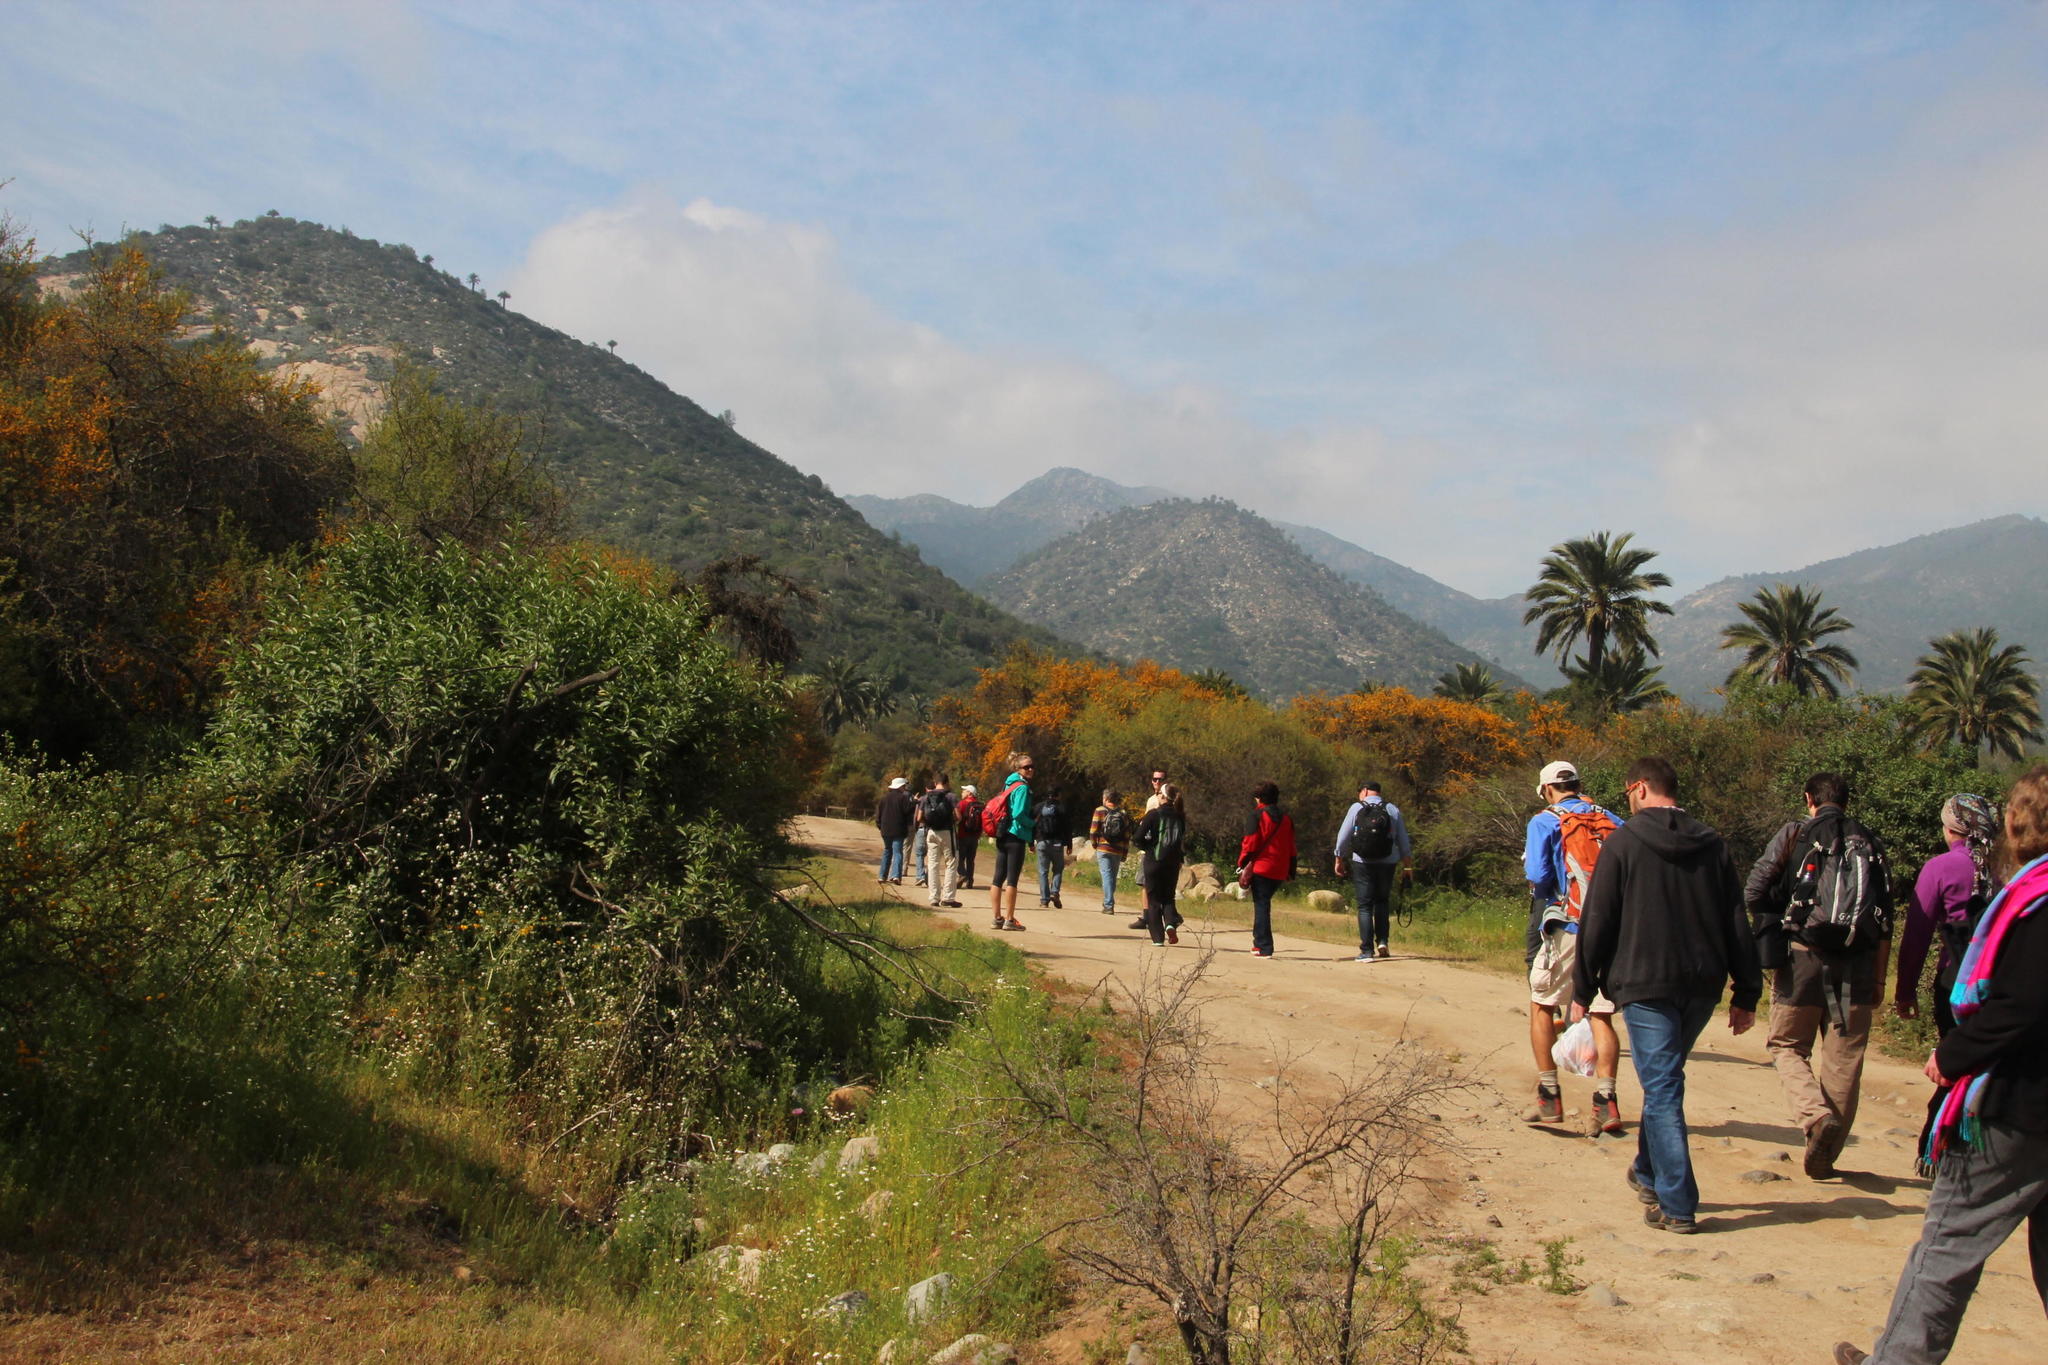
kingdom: Plantae
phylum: Tracheophyta
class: Magnoliopsida
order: Fabales
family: Fabaceae
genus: Vachellia
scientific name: Vachellia caven
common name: Roman cassie
